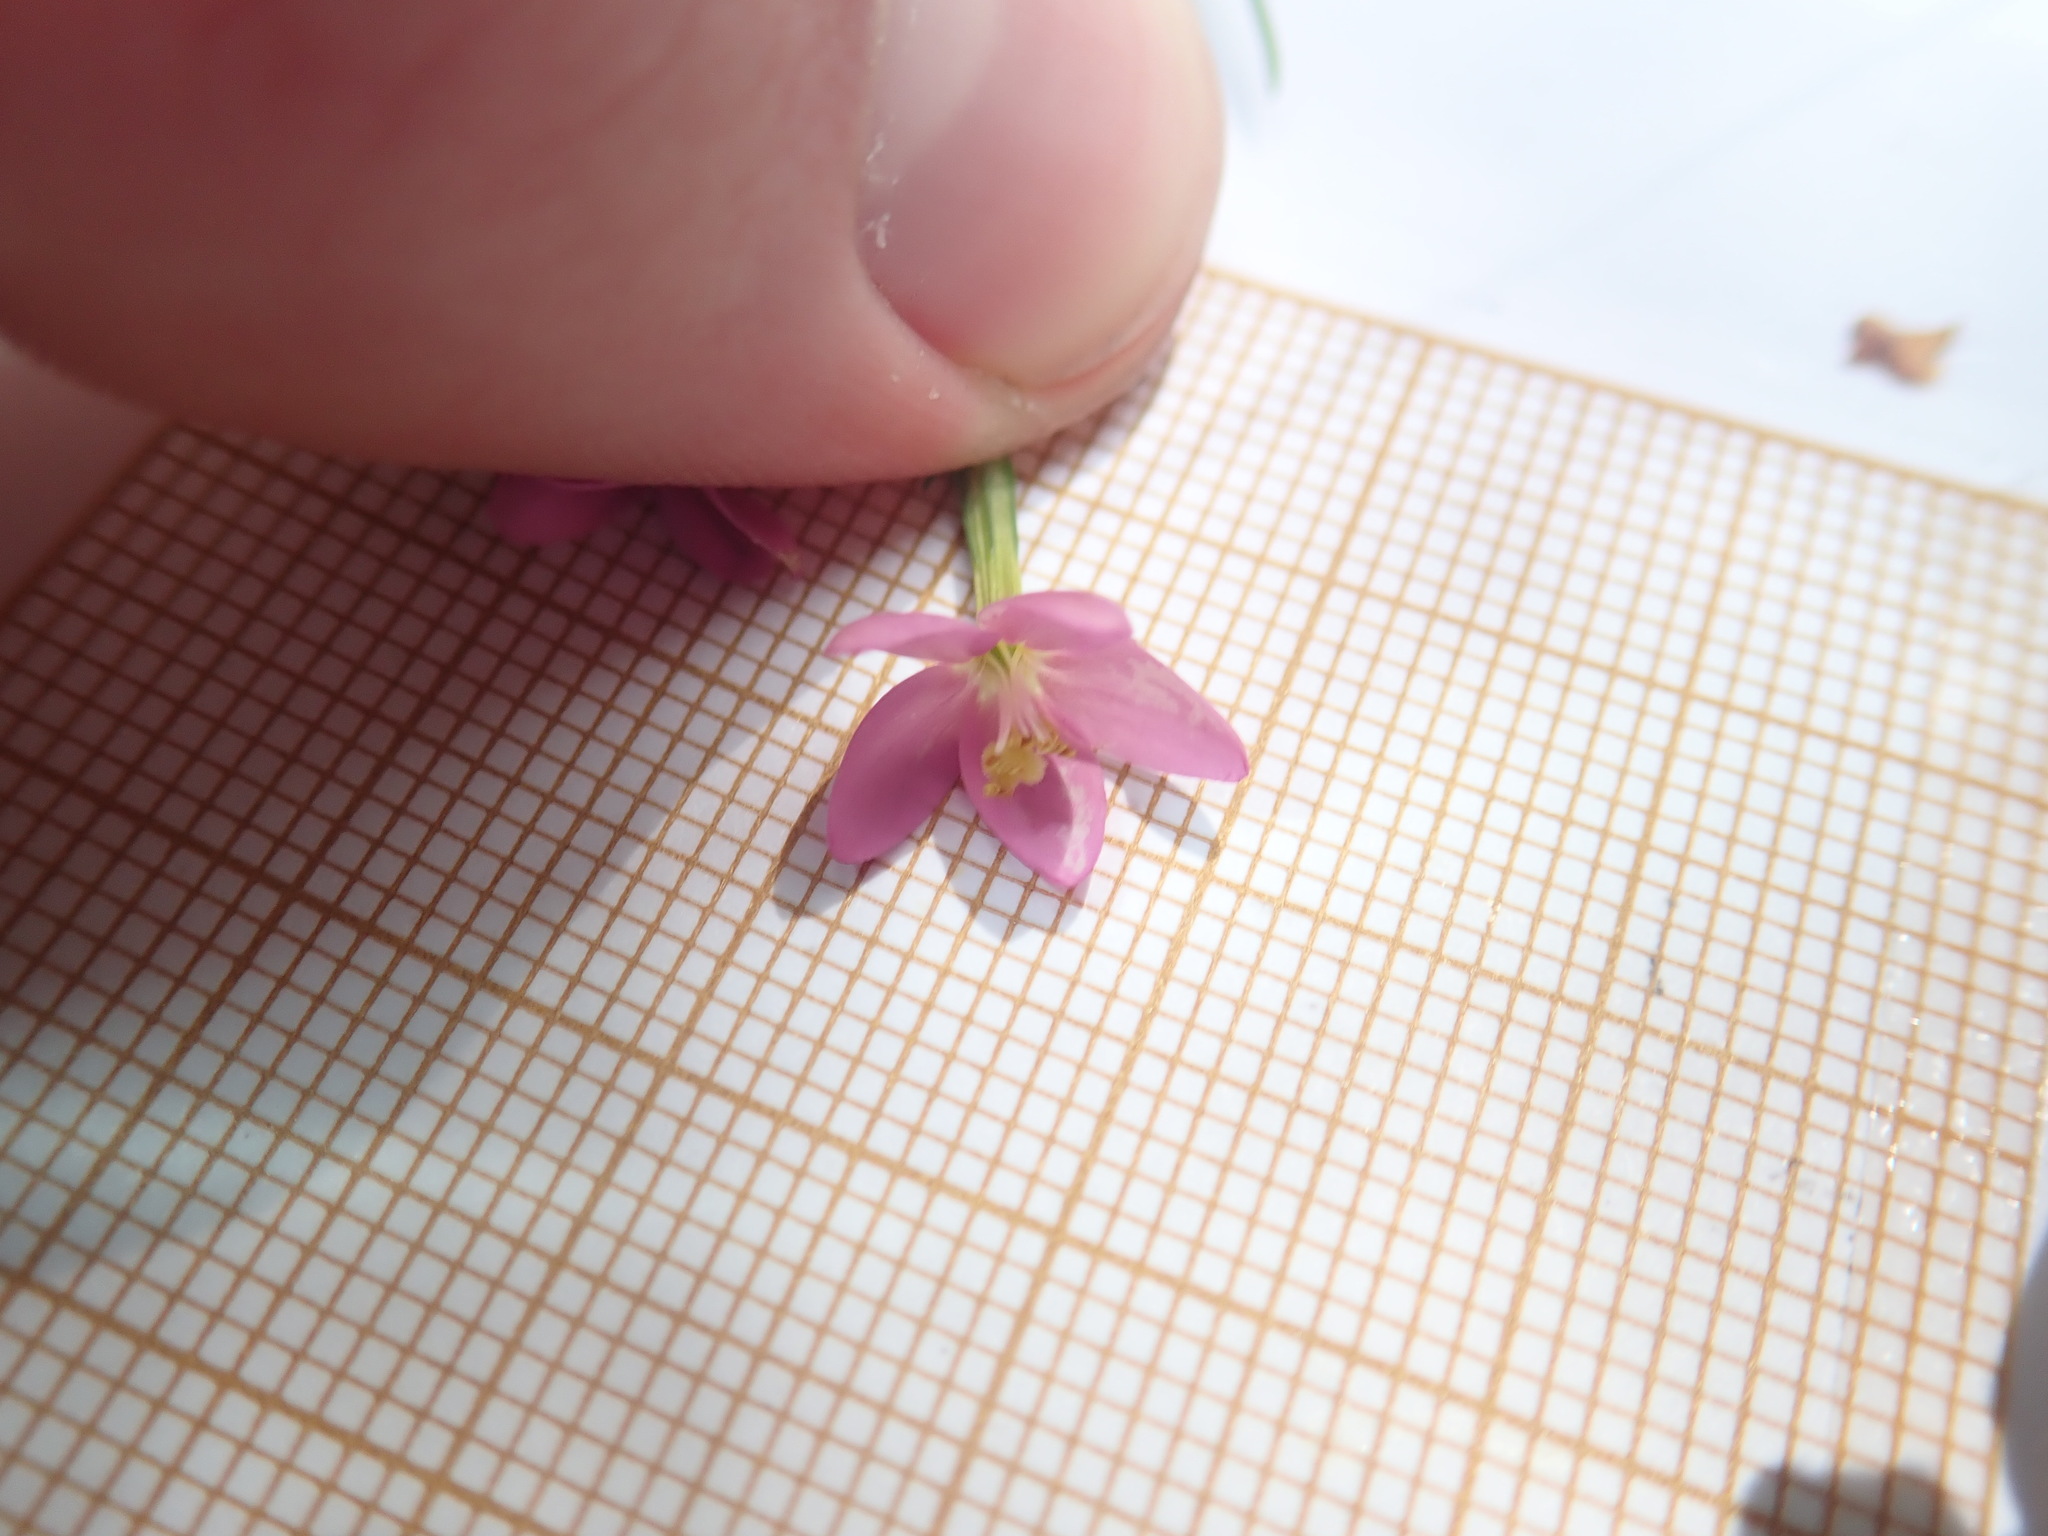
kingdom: Plantae
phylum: Tracheophyta
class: Magnoliopsida
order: Gentianales
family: Gentianaceae
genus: Centaurium
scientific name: Centaurium erythraea
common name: Common centaury
